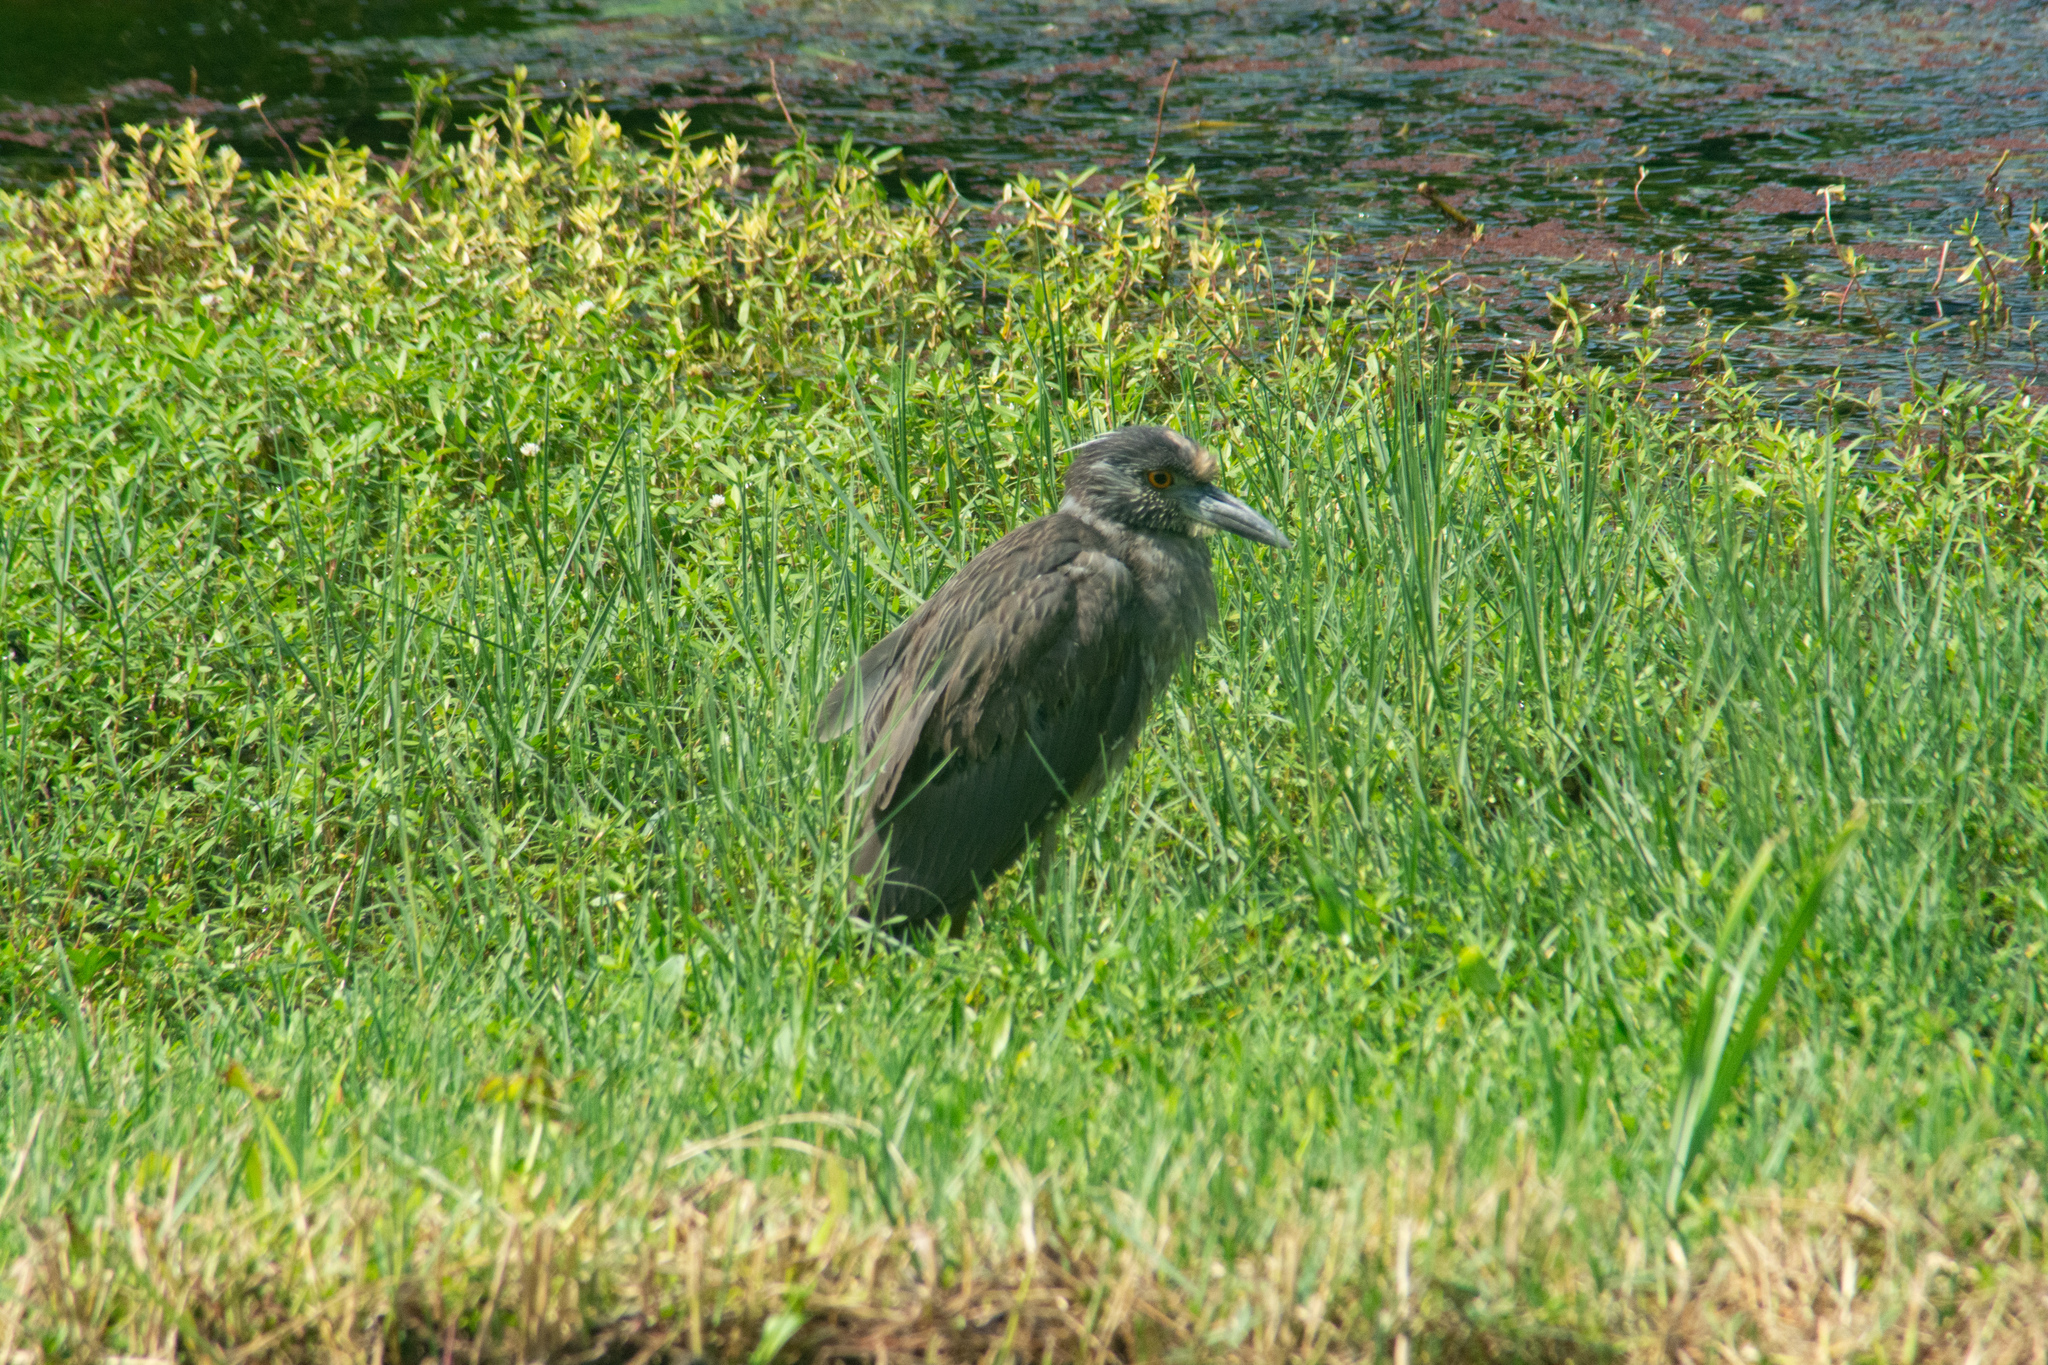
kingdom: Animalia
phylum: Chordata
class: Aves
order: Pelecaniformes
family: Ardeidae
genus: Nyctanassa
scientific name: Nyctanassa violacea
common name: Yellow-crowned night heron
